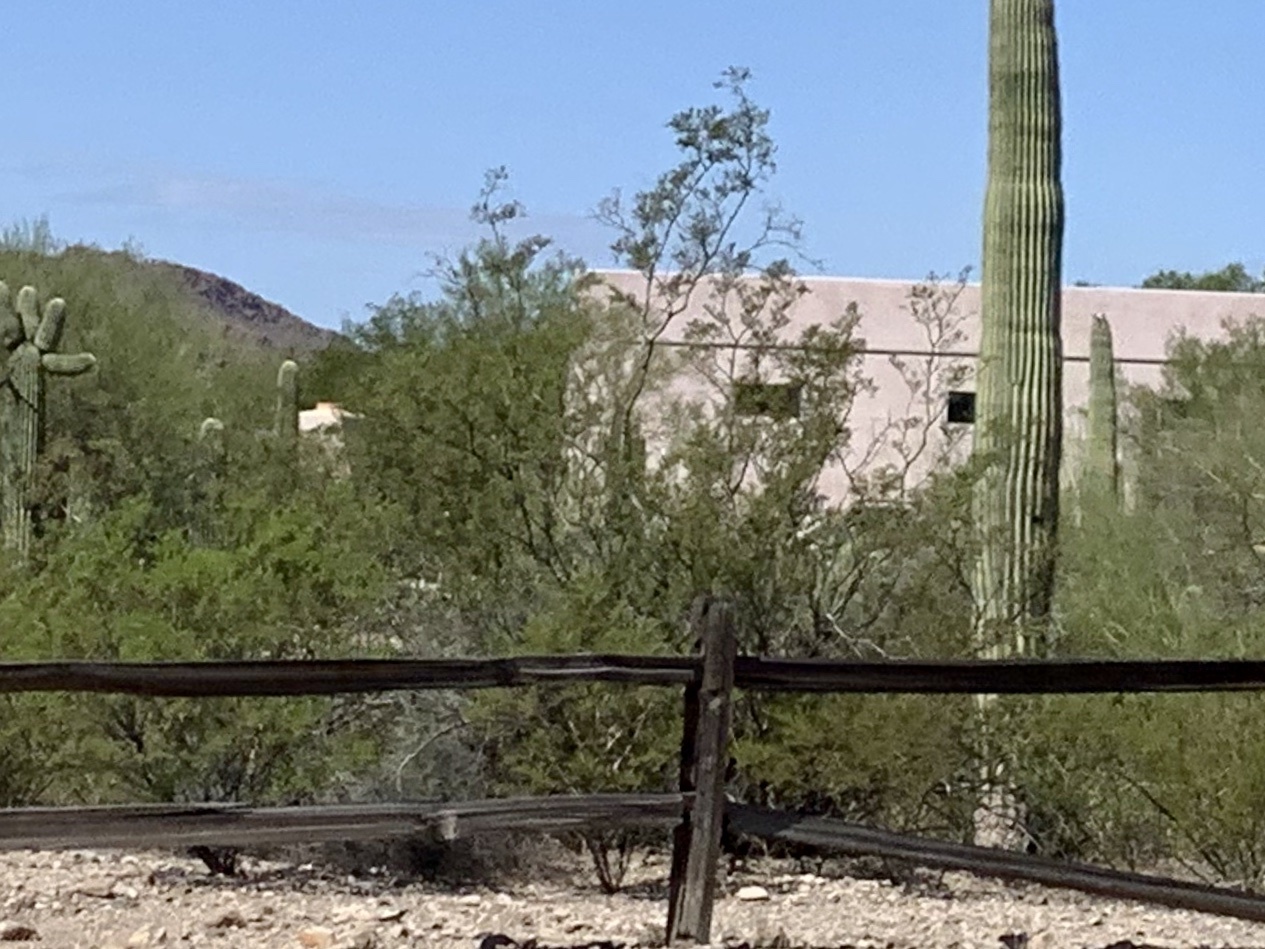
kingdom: Plantae
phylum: Tracheophyta
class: Magnoliopsida
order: Zygophyllales
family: Zygophyllaceae
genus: Larrea
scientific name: Larrea tridentata
